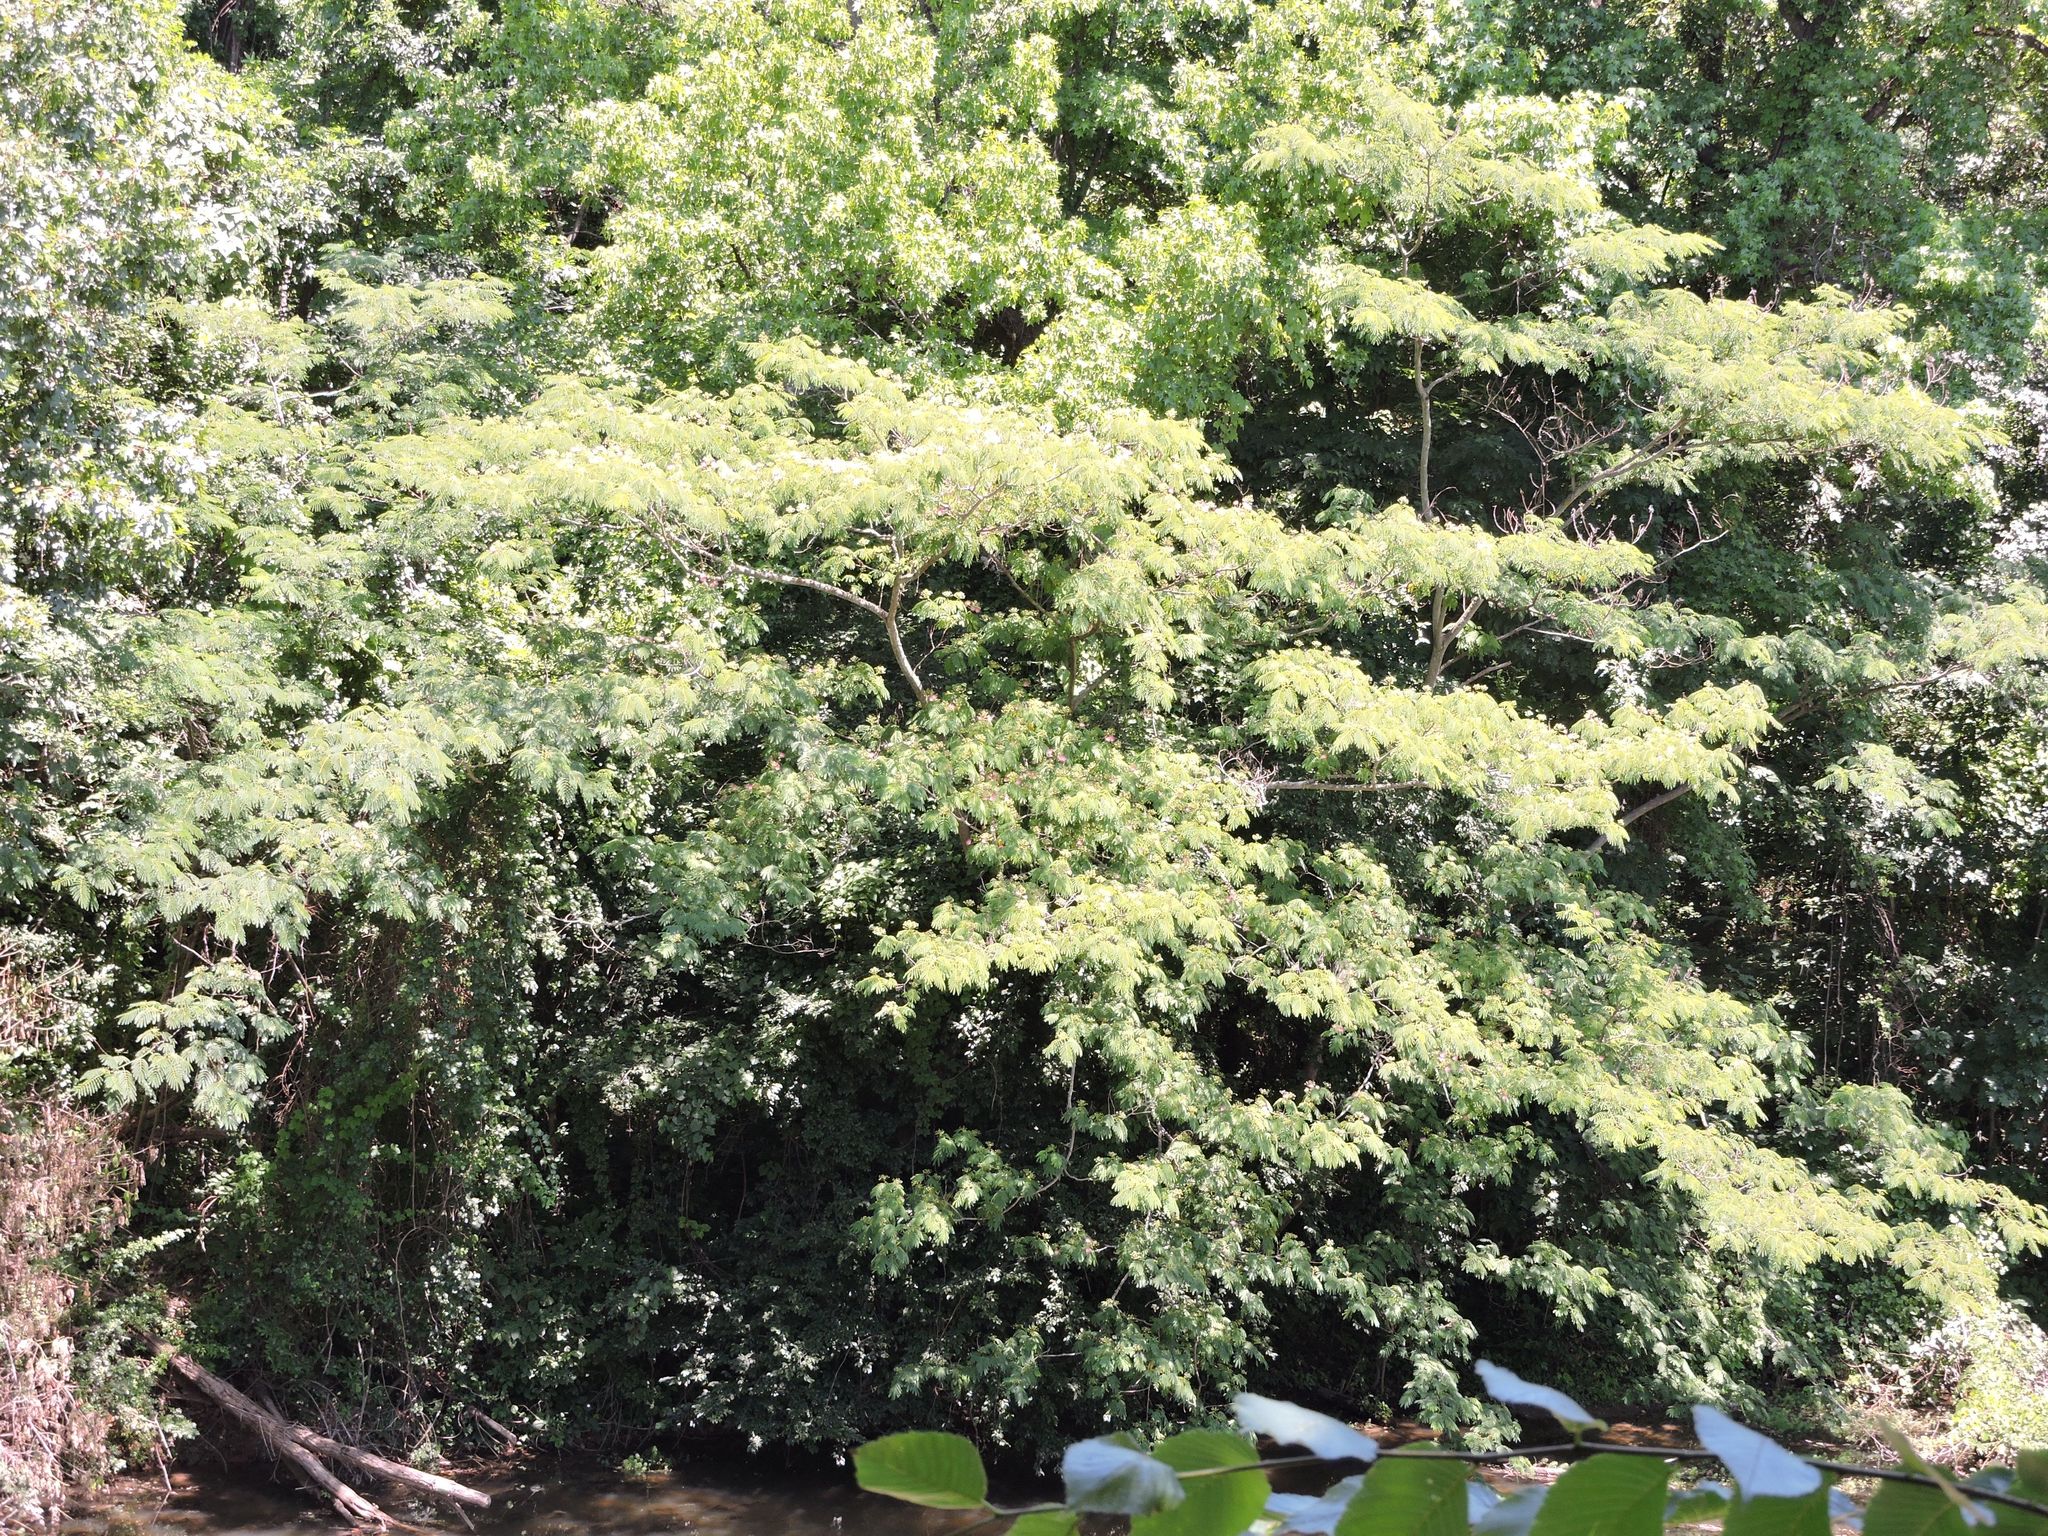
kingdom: Plantae
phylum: Tracheophyta
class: Magnoliopsida
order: Fabales
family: Fabaceae
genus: Albizia
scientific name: Albizia julibrissin
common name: Silktree
